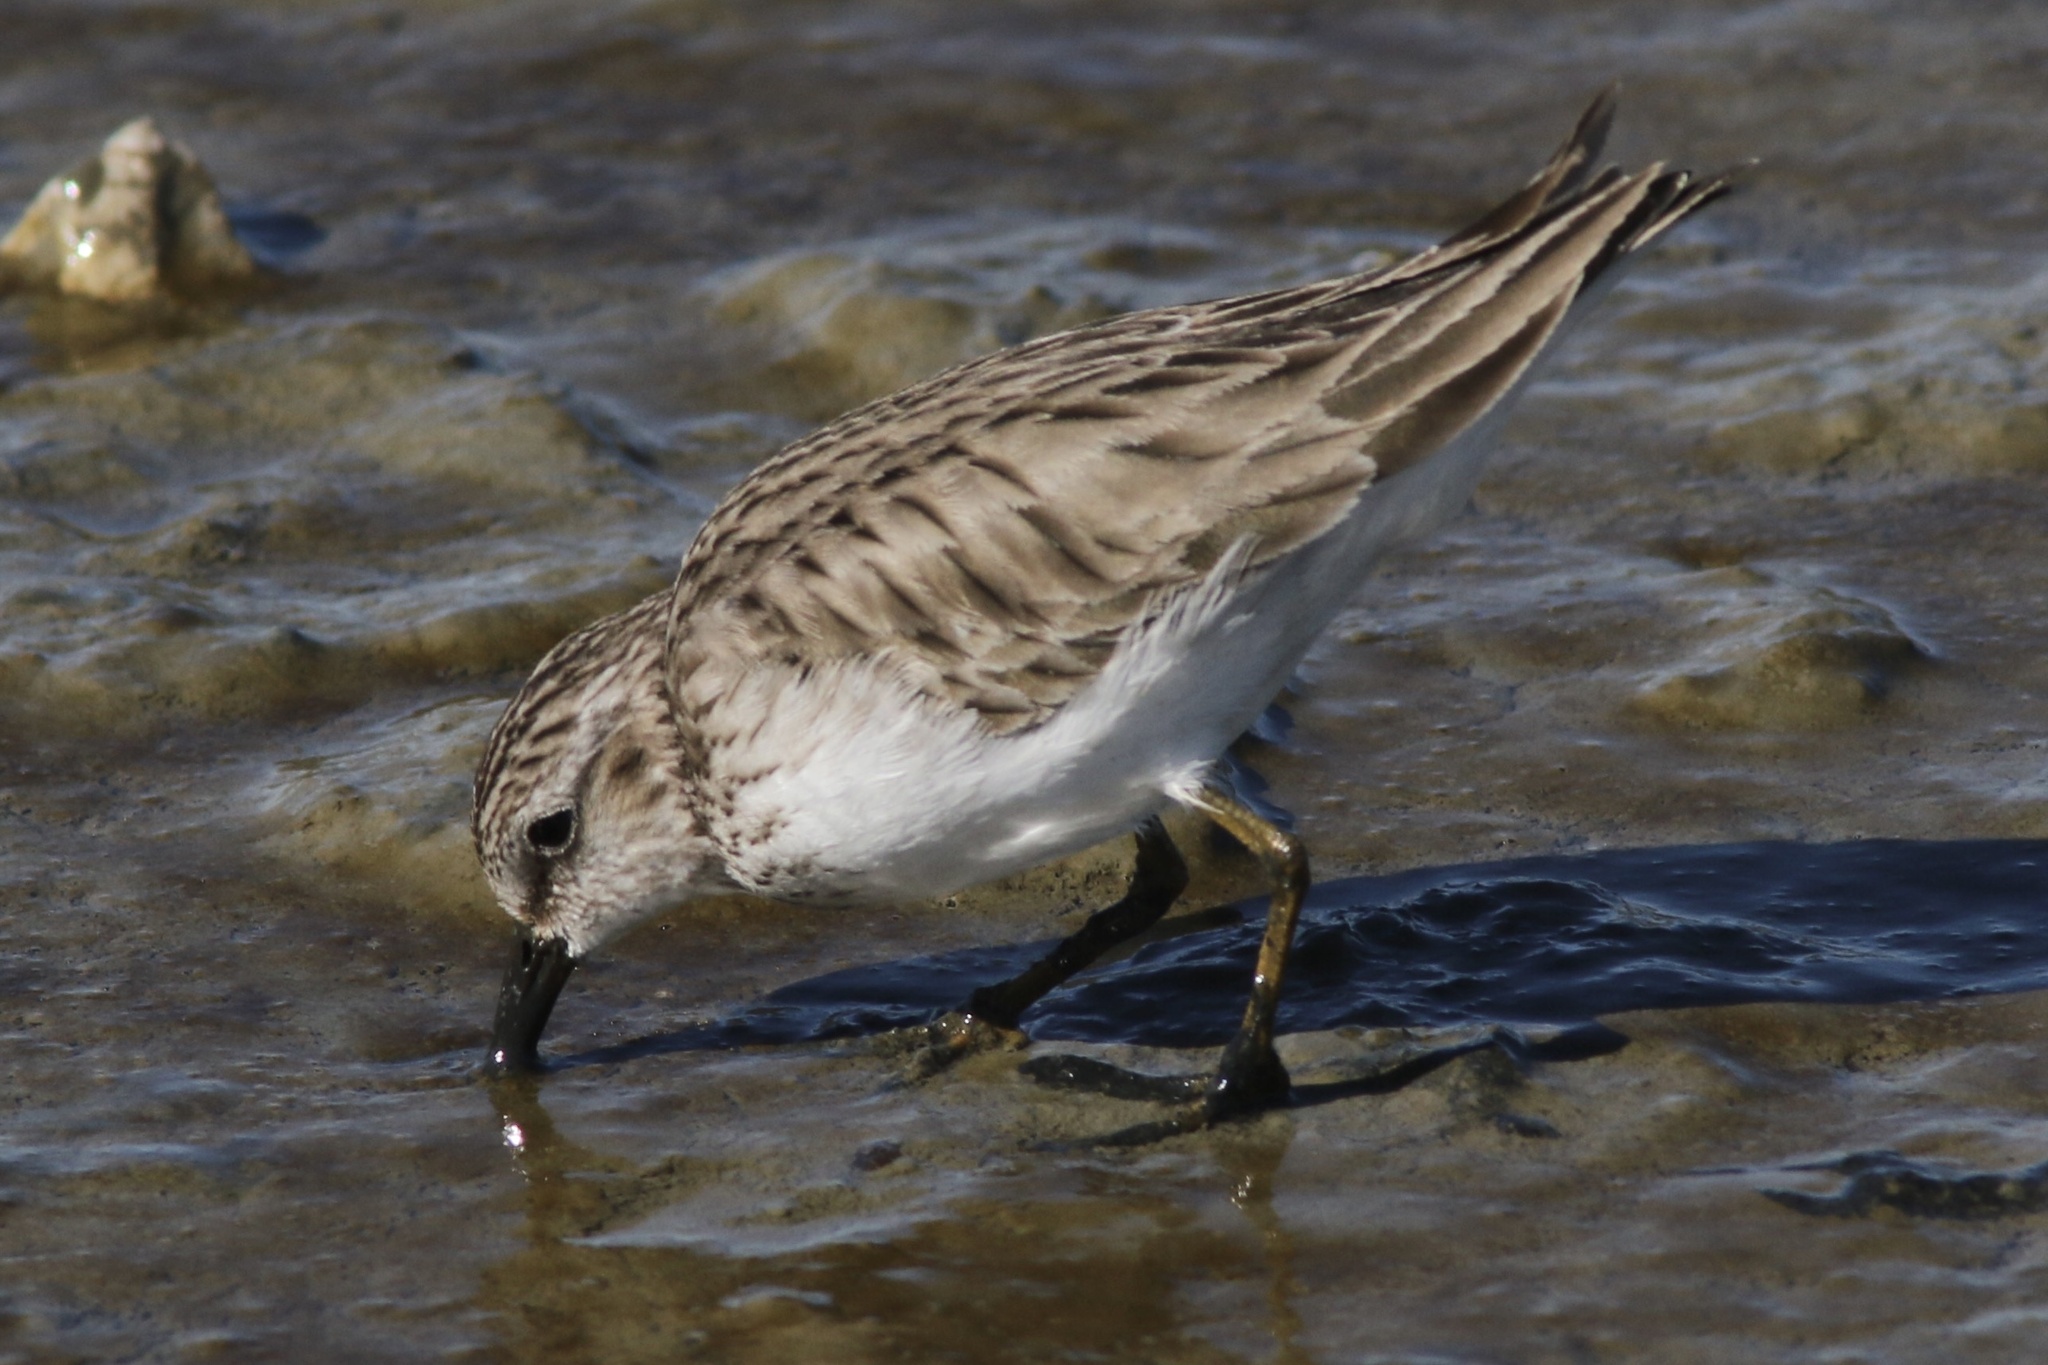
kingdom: Animalia
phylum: Chordata
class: Aves
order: Charadriiformes
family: Scolopacidae
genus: Calidris
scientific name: Calidris minutilla
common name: Least sandpiper
